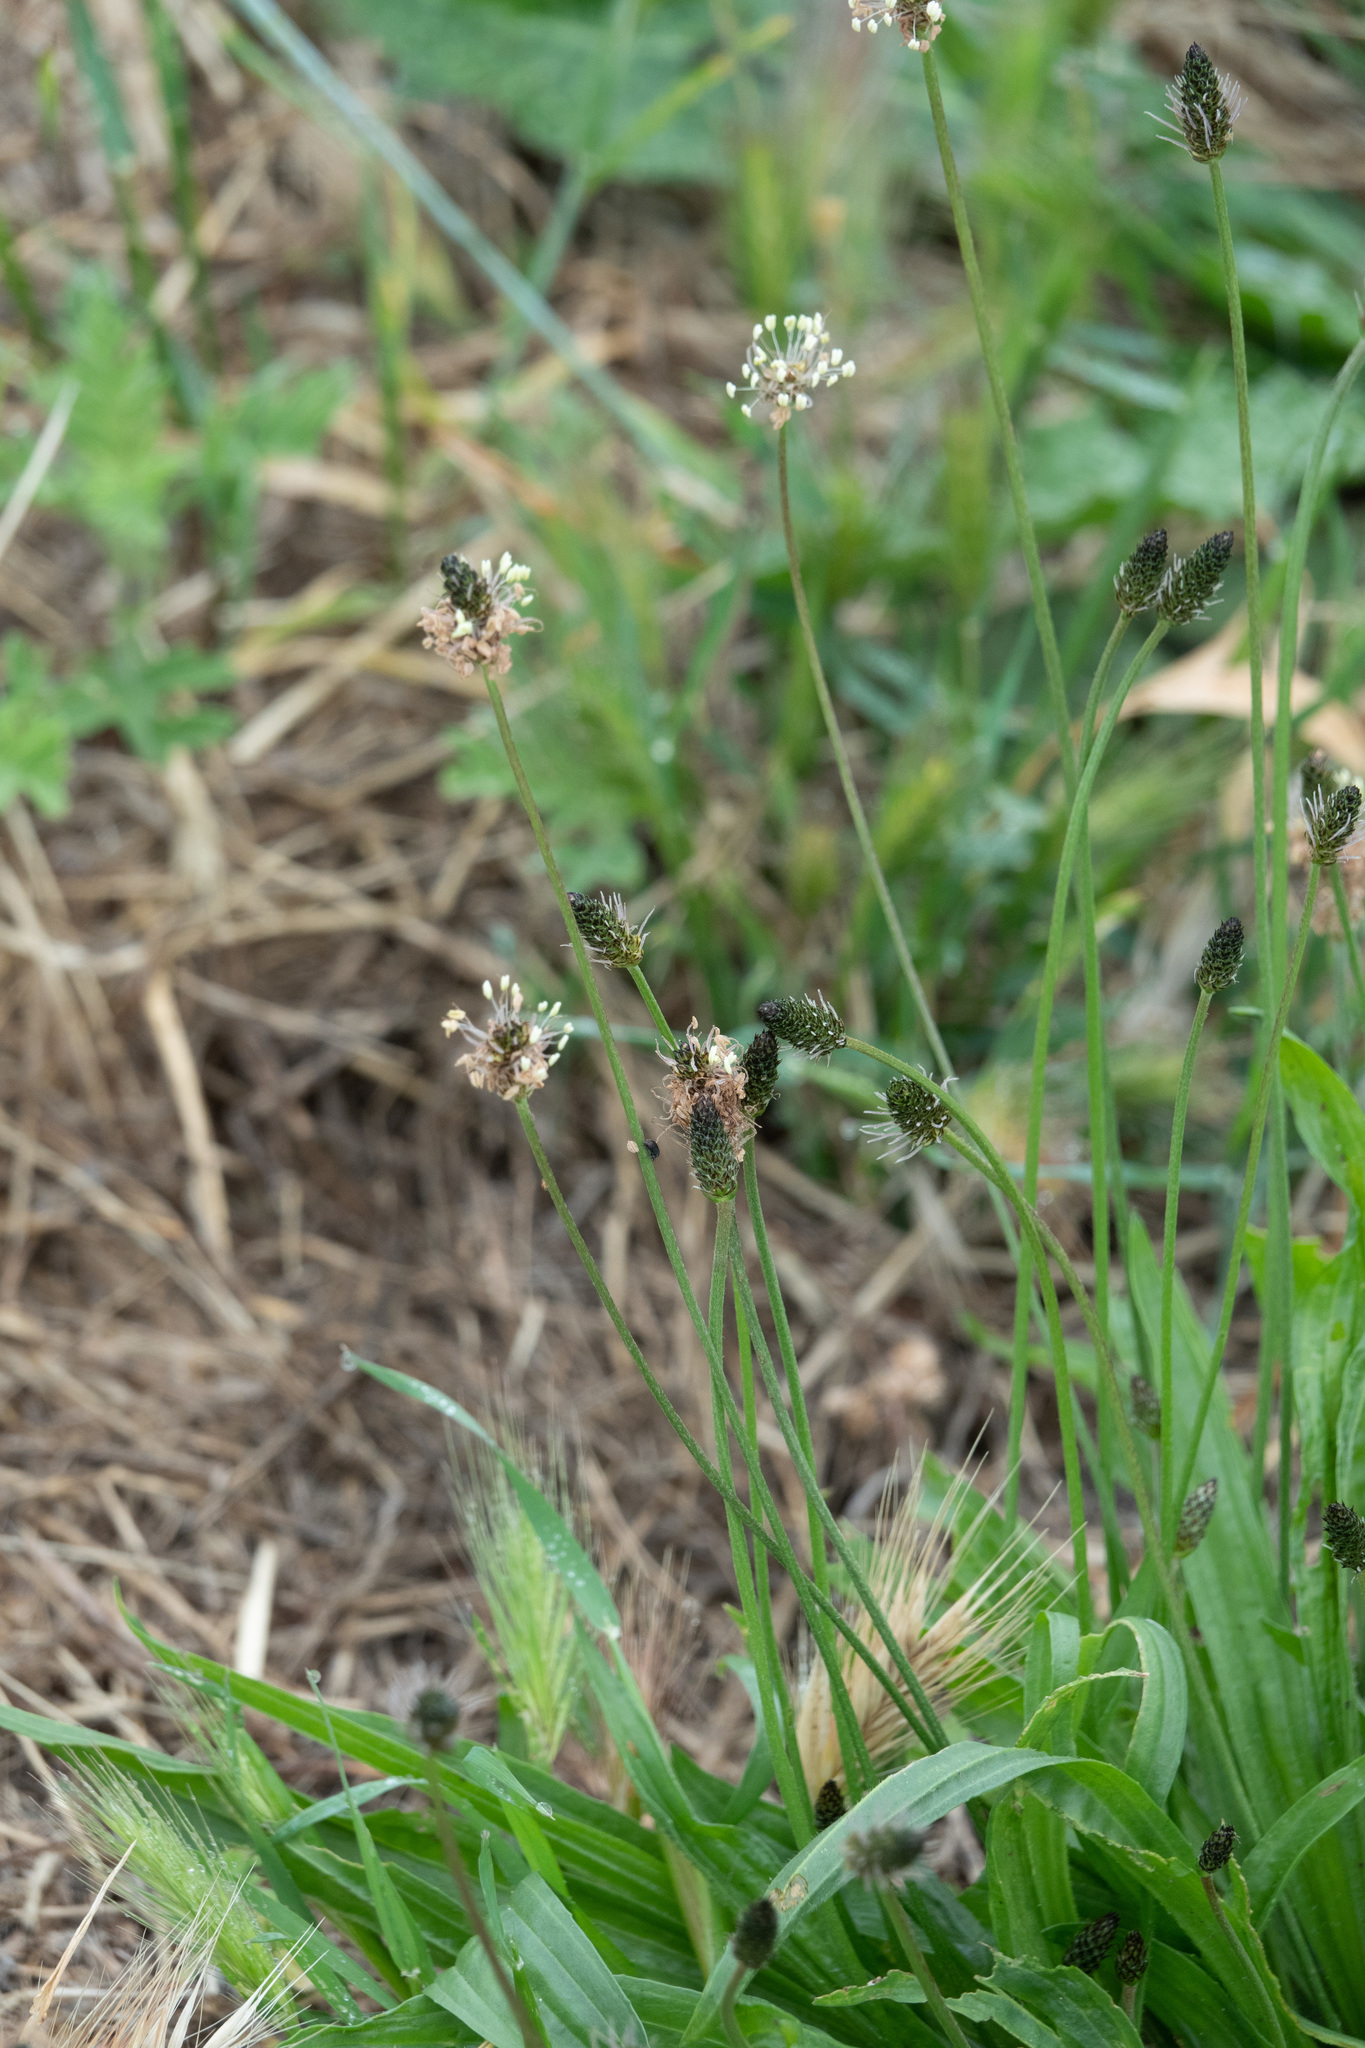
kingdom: Plantae
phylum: Tracheophyta
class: Magnoliopsida
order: Lamiales
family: Plantaginaceae
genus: Plantago
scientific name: Plantago lanceolata
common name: Ribwort plantain
